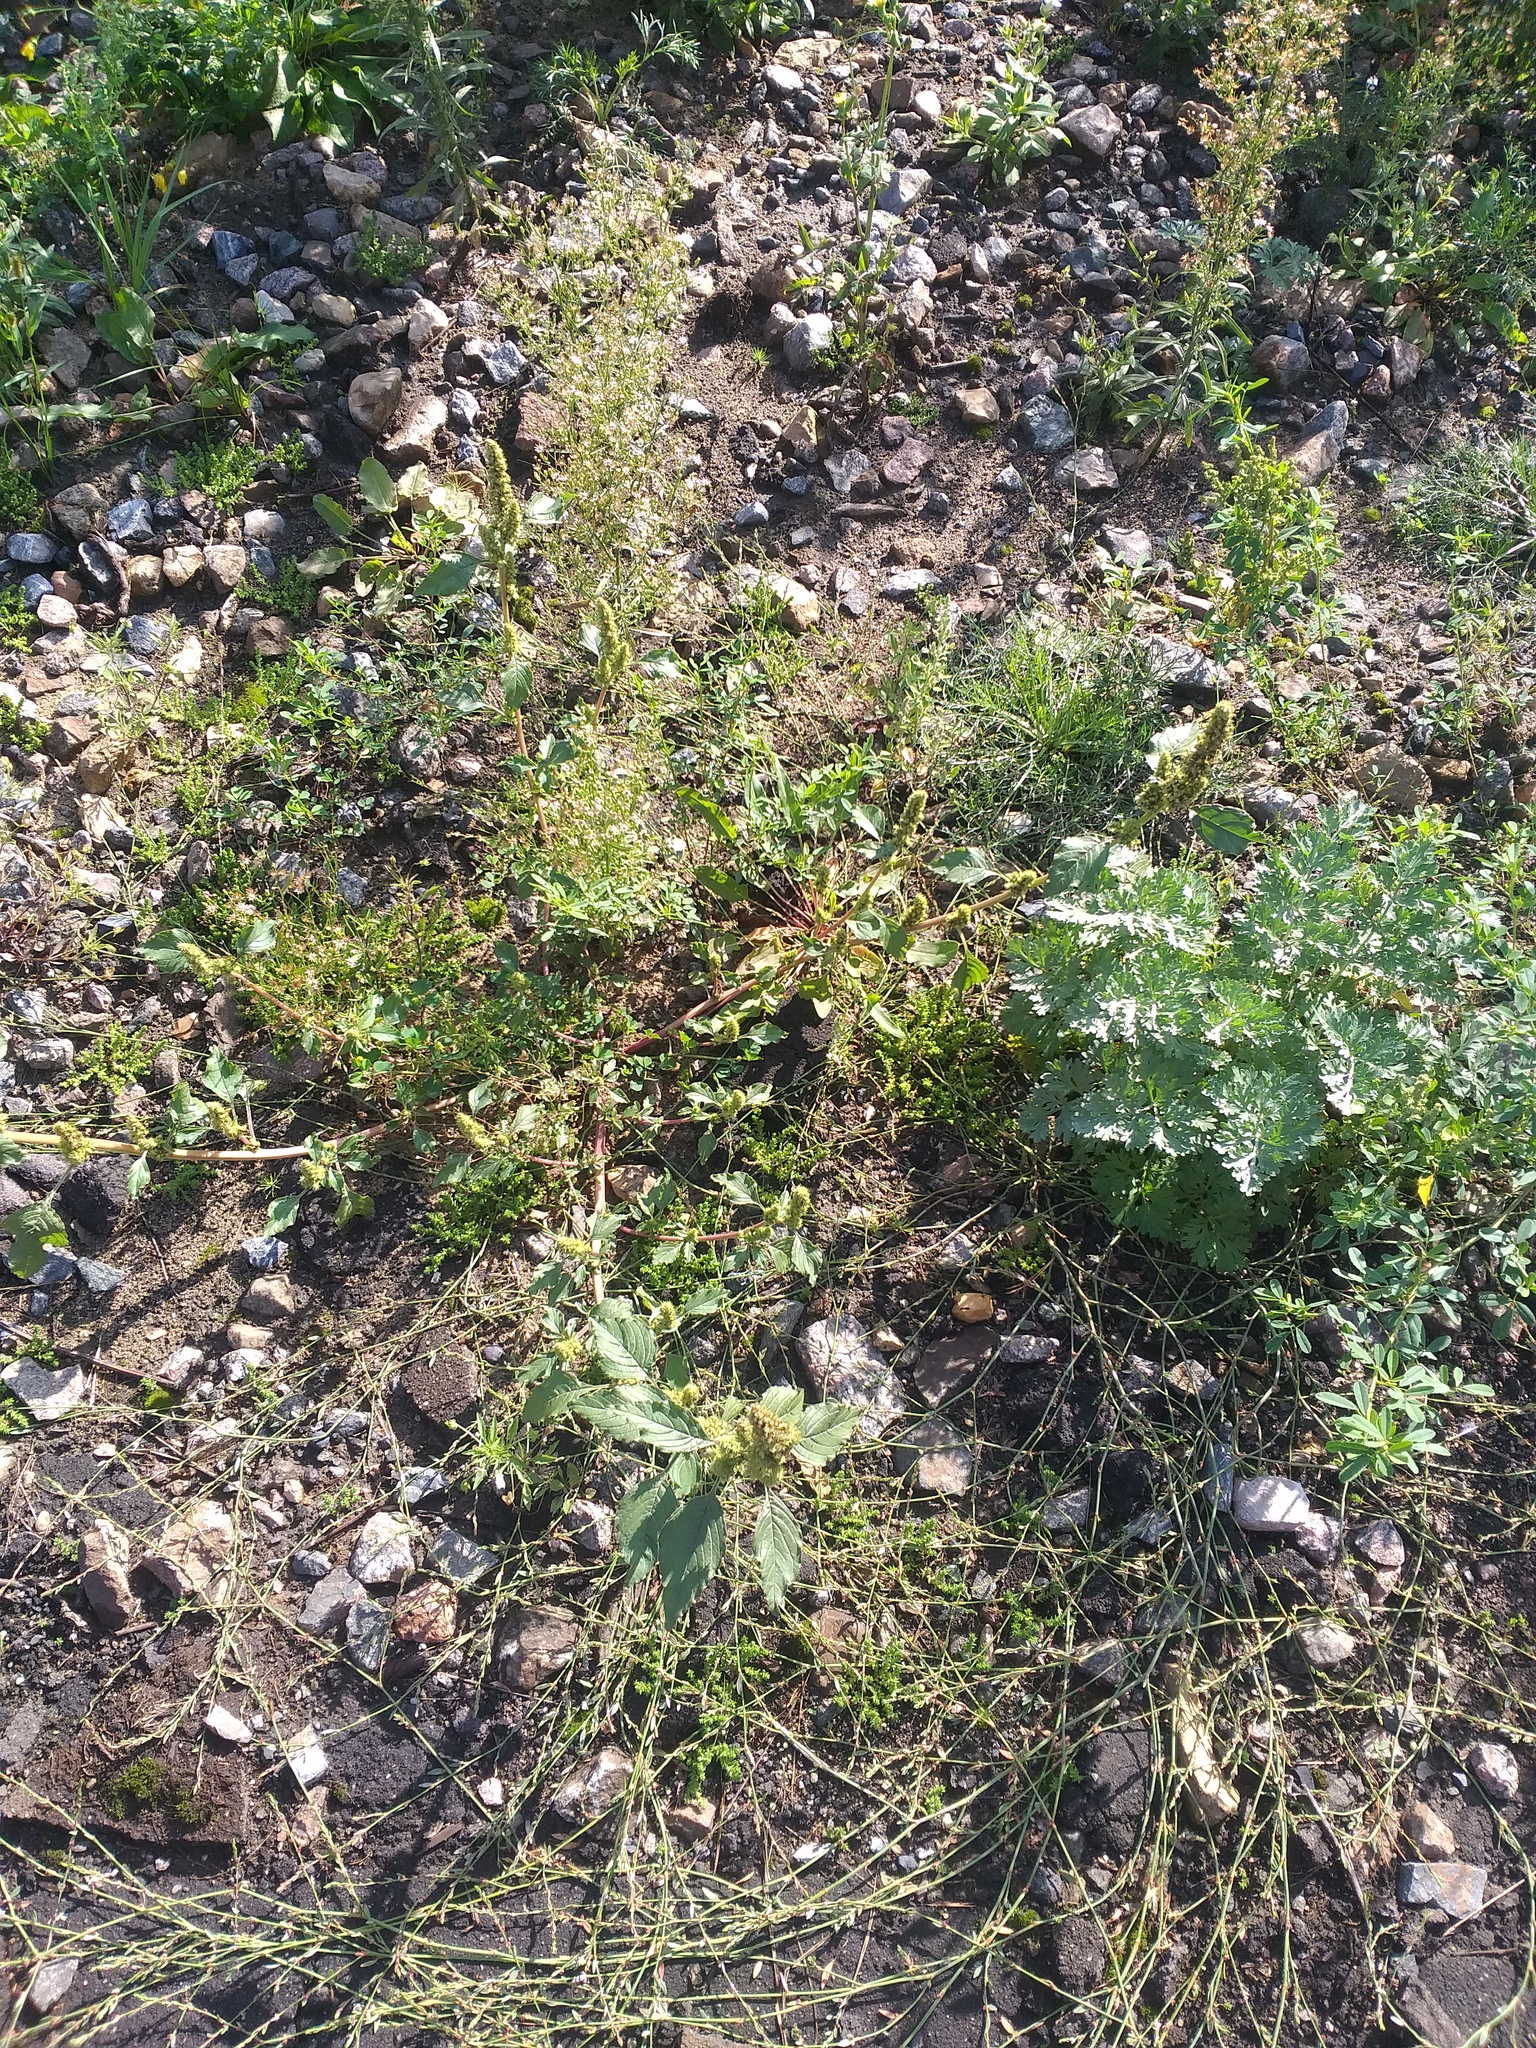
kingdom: Plantae
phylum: Tracheophyta
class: Magnoliopsida
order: Caryophyllales
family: Amaranthaceae
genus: Amaranthus
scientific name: Amaranthus retroflexus
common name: Redroot amaranth
